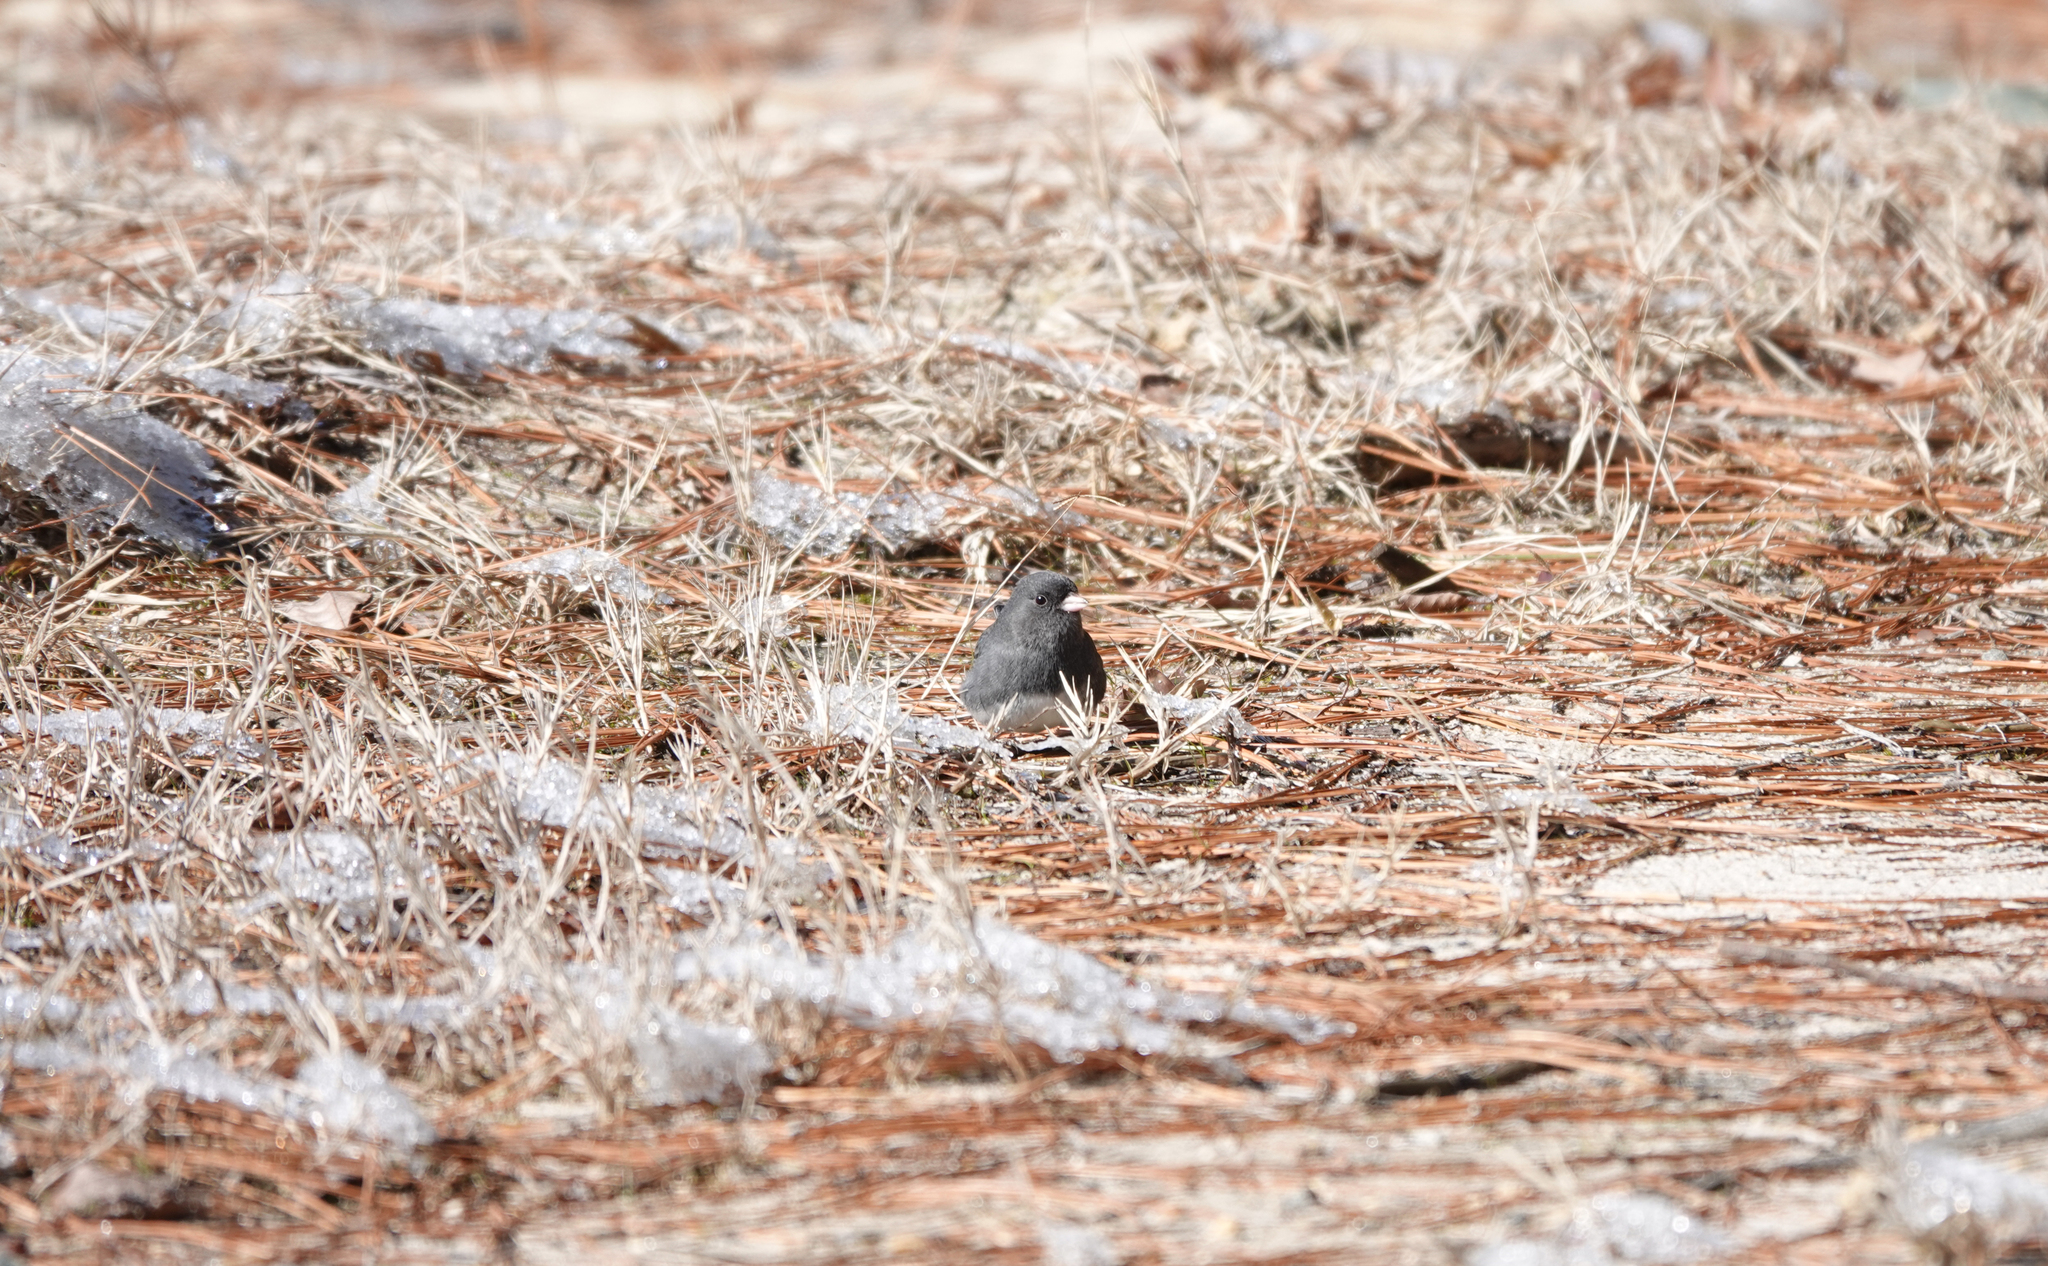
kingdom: Animalia
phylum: Chordata
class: Aves
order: Passeriformes
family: Passerellidae
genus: Junco
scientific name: Junco hyemalis
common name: Dark-eyed junco
